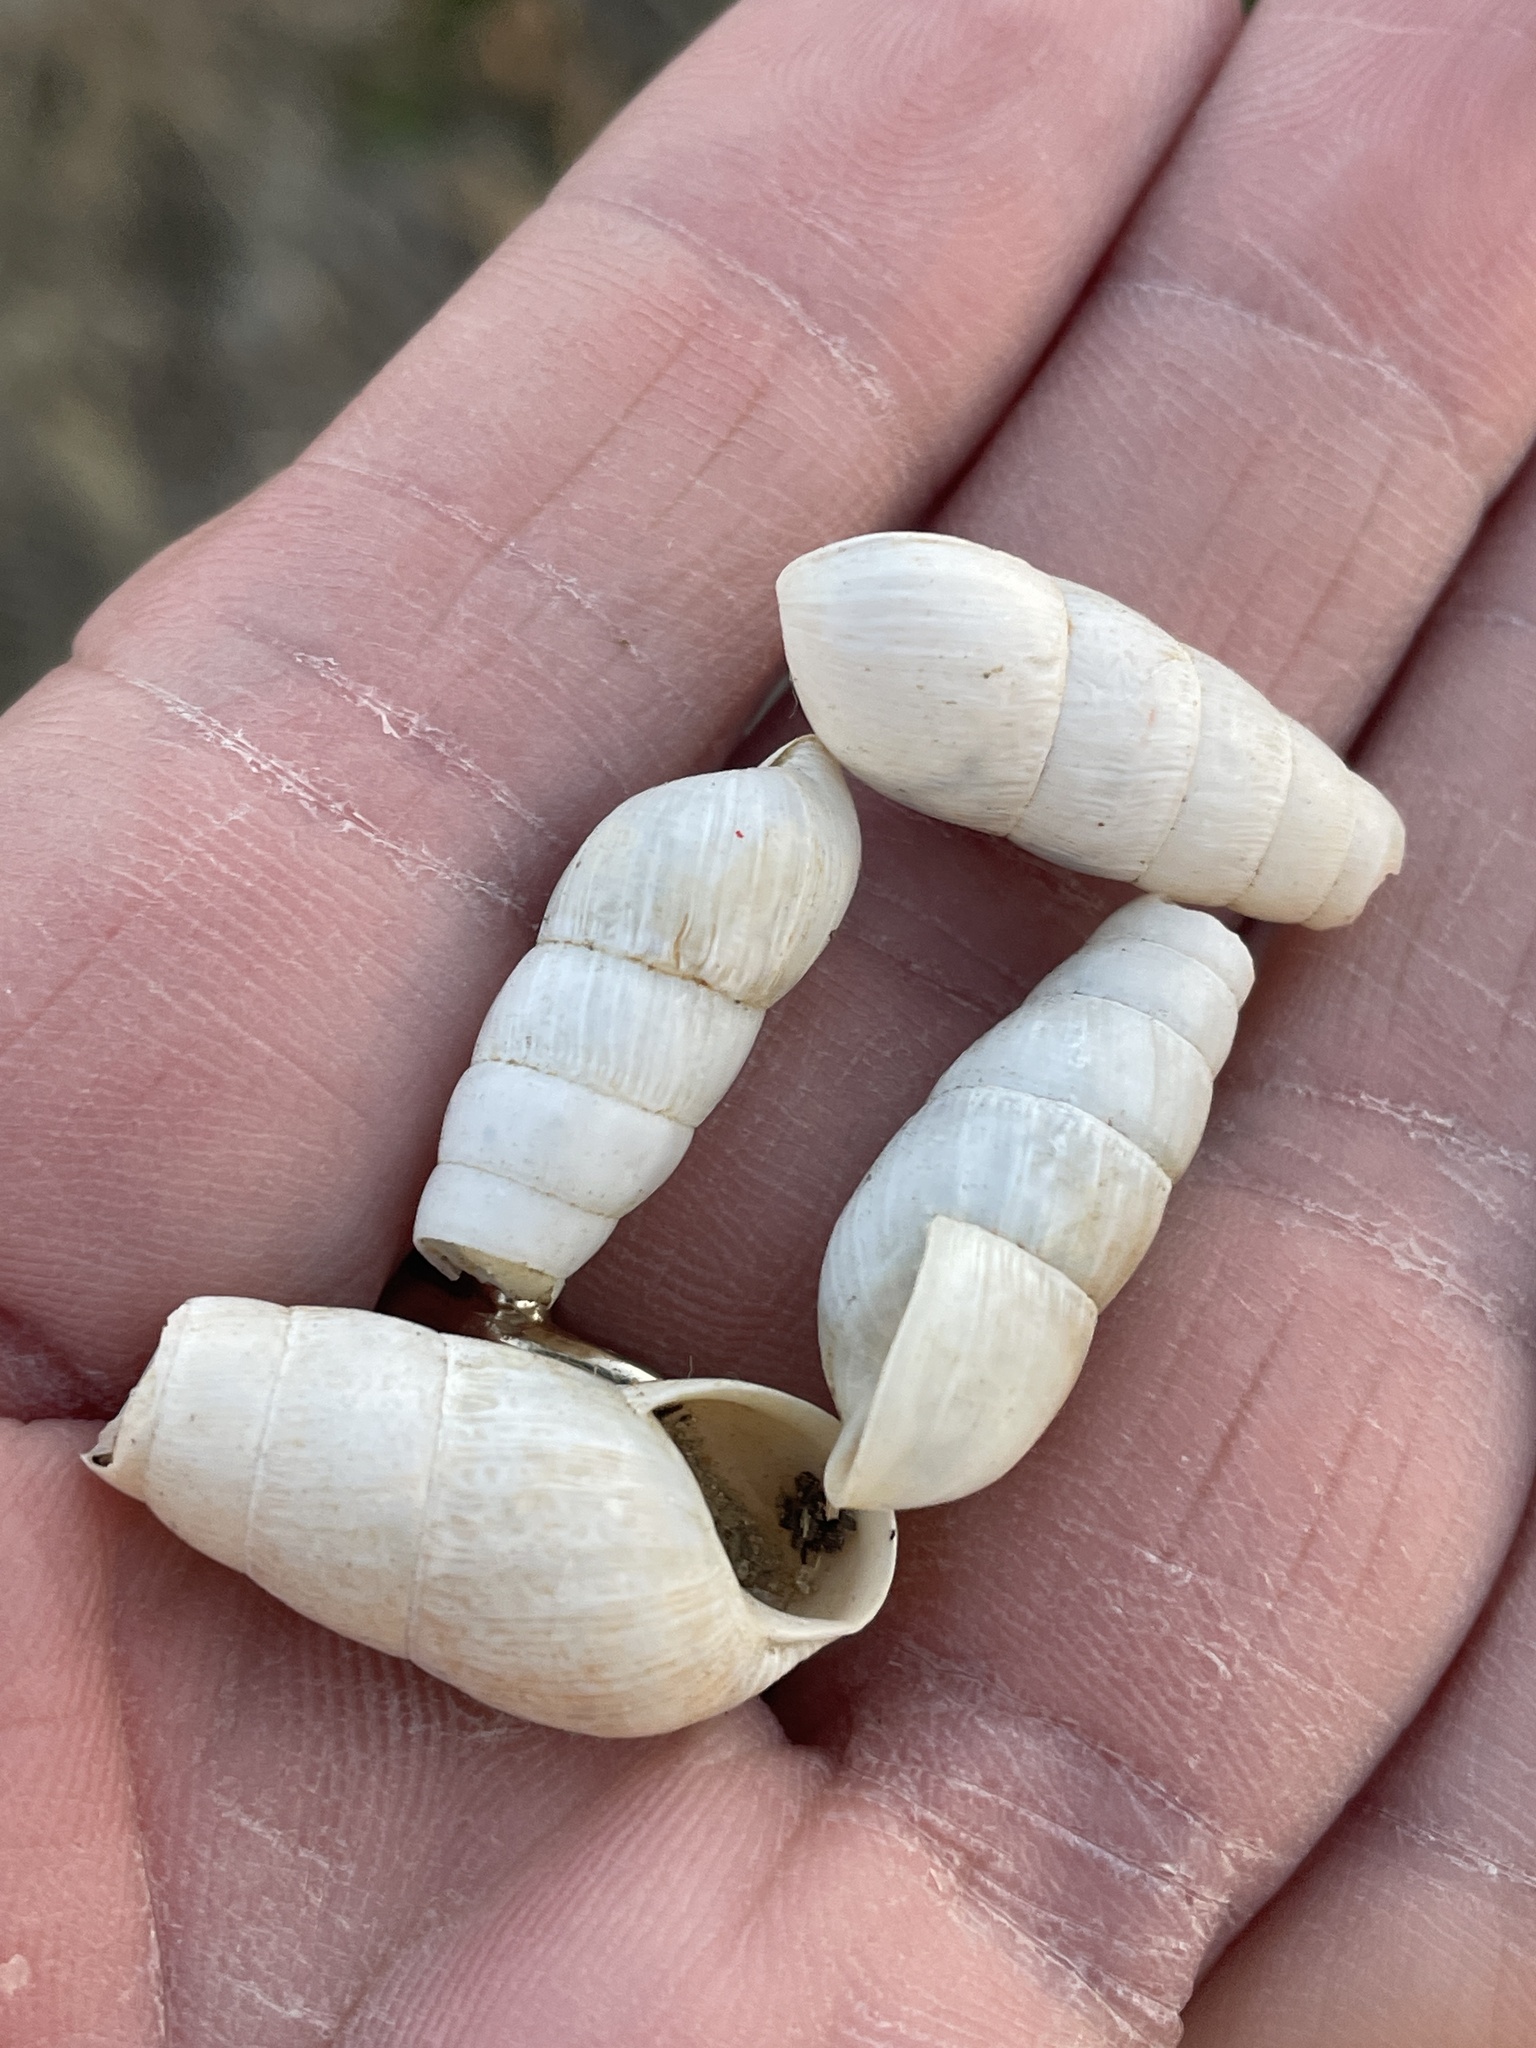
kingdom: Animalia
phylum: Mollusca
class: Gastropoda
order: Stylommatophora
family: Achatinidae
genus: Rumina
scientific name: Rumina decollata
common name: Decollate snail
